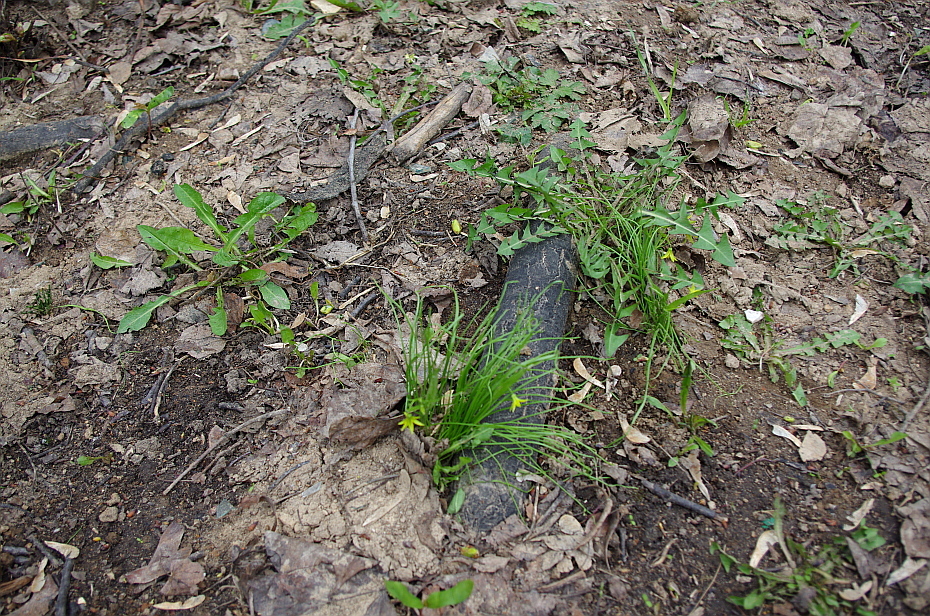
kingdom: Plantae
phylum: Tracheophyta
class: Liliopsida
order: Liliales
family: Liliaceae
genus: Gagea
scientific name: Gagea minima
